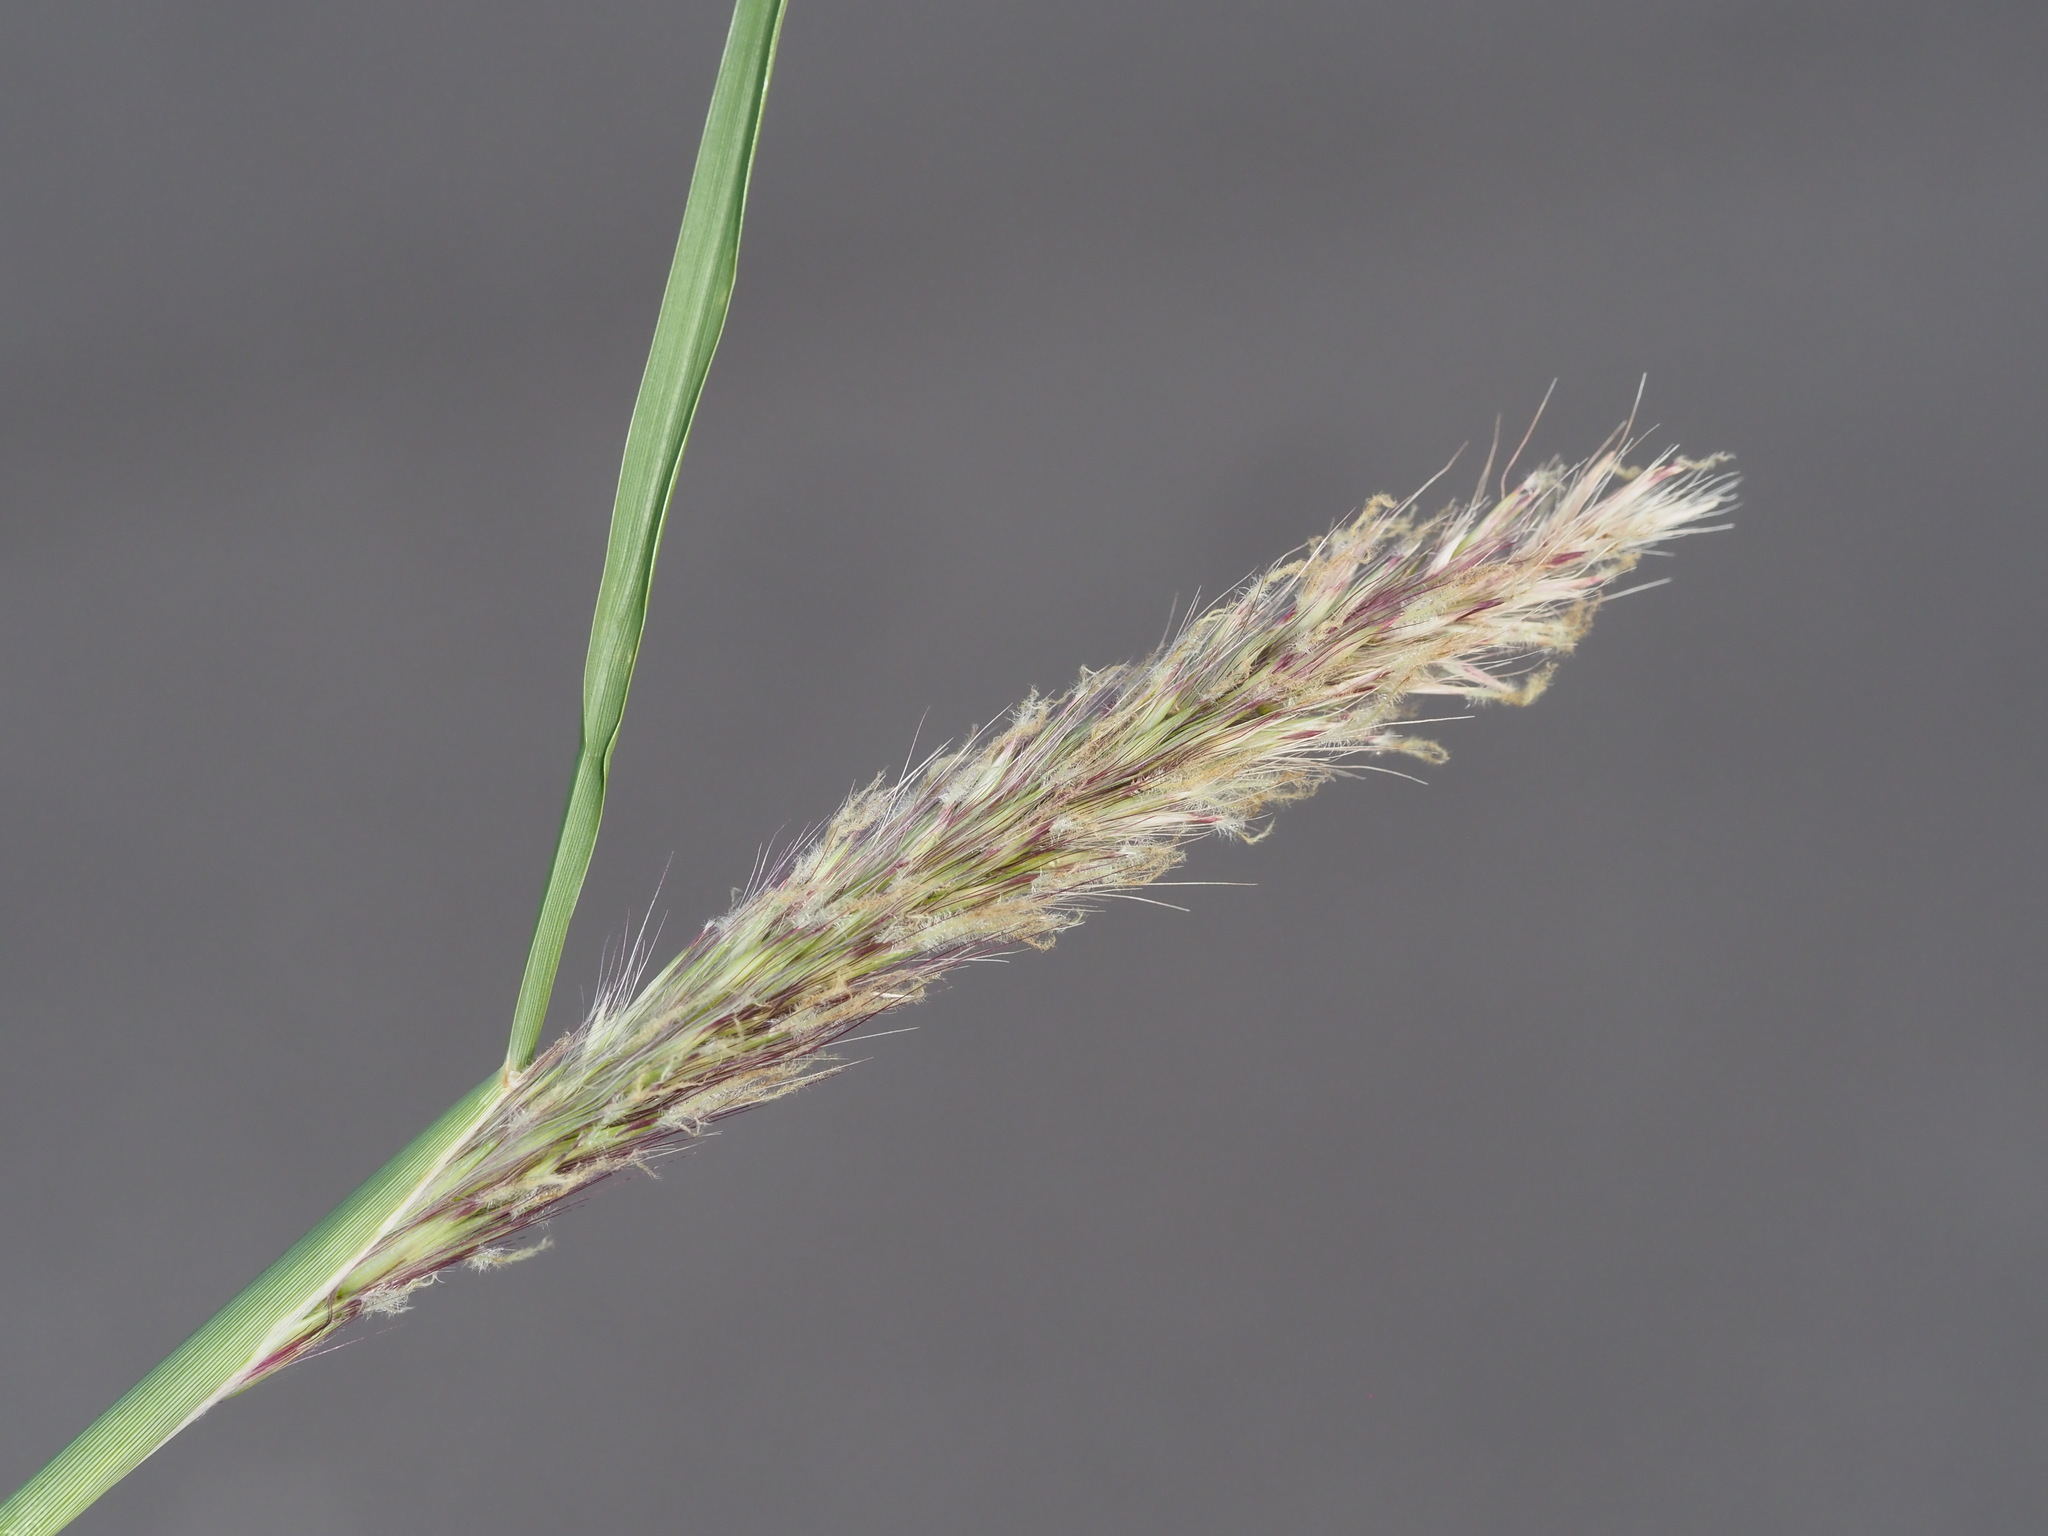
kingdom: Plantae
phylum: Tracheophyta
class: Liliopsida
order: Poales
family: Poaceae
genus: Cenchrus
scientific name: Cenchrus
